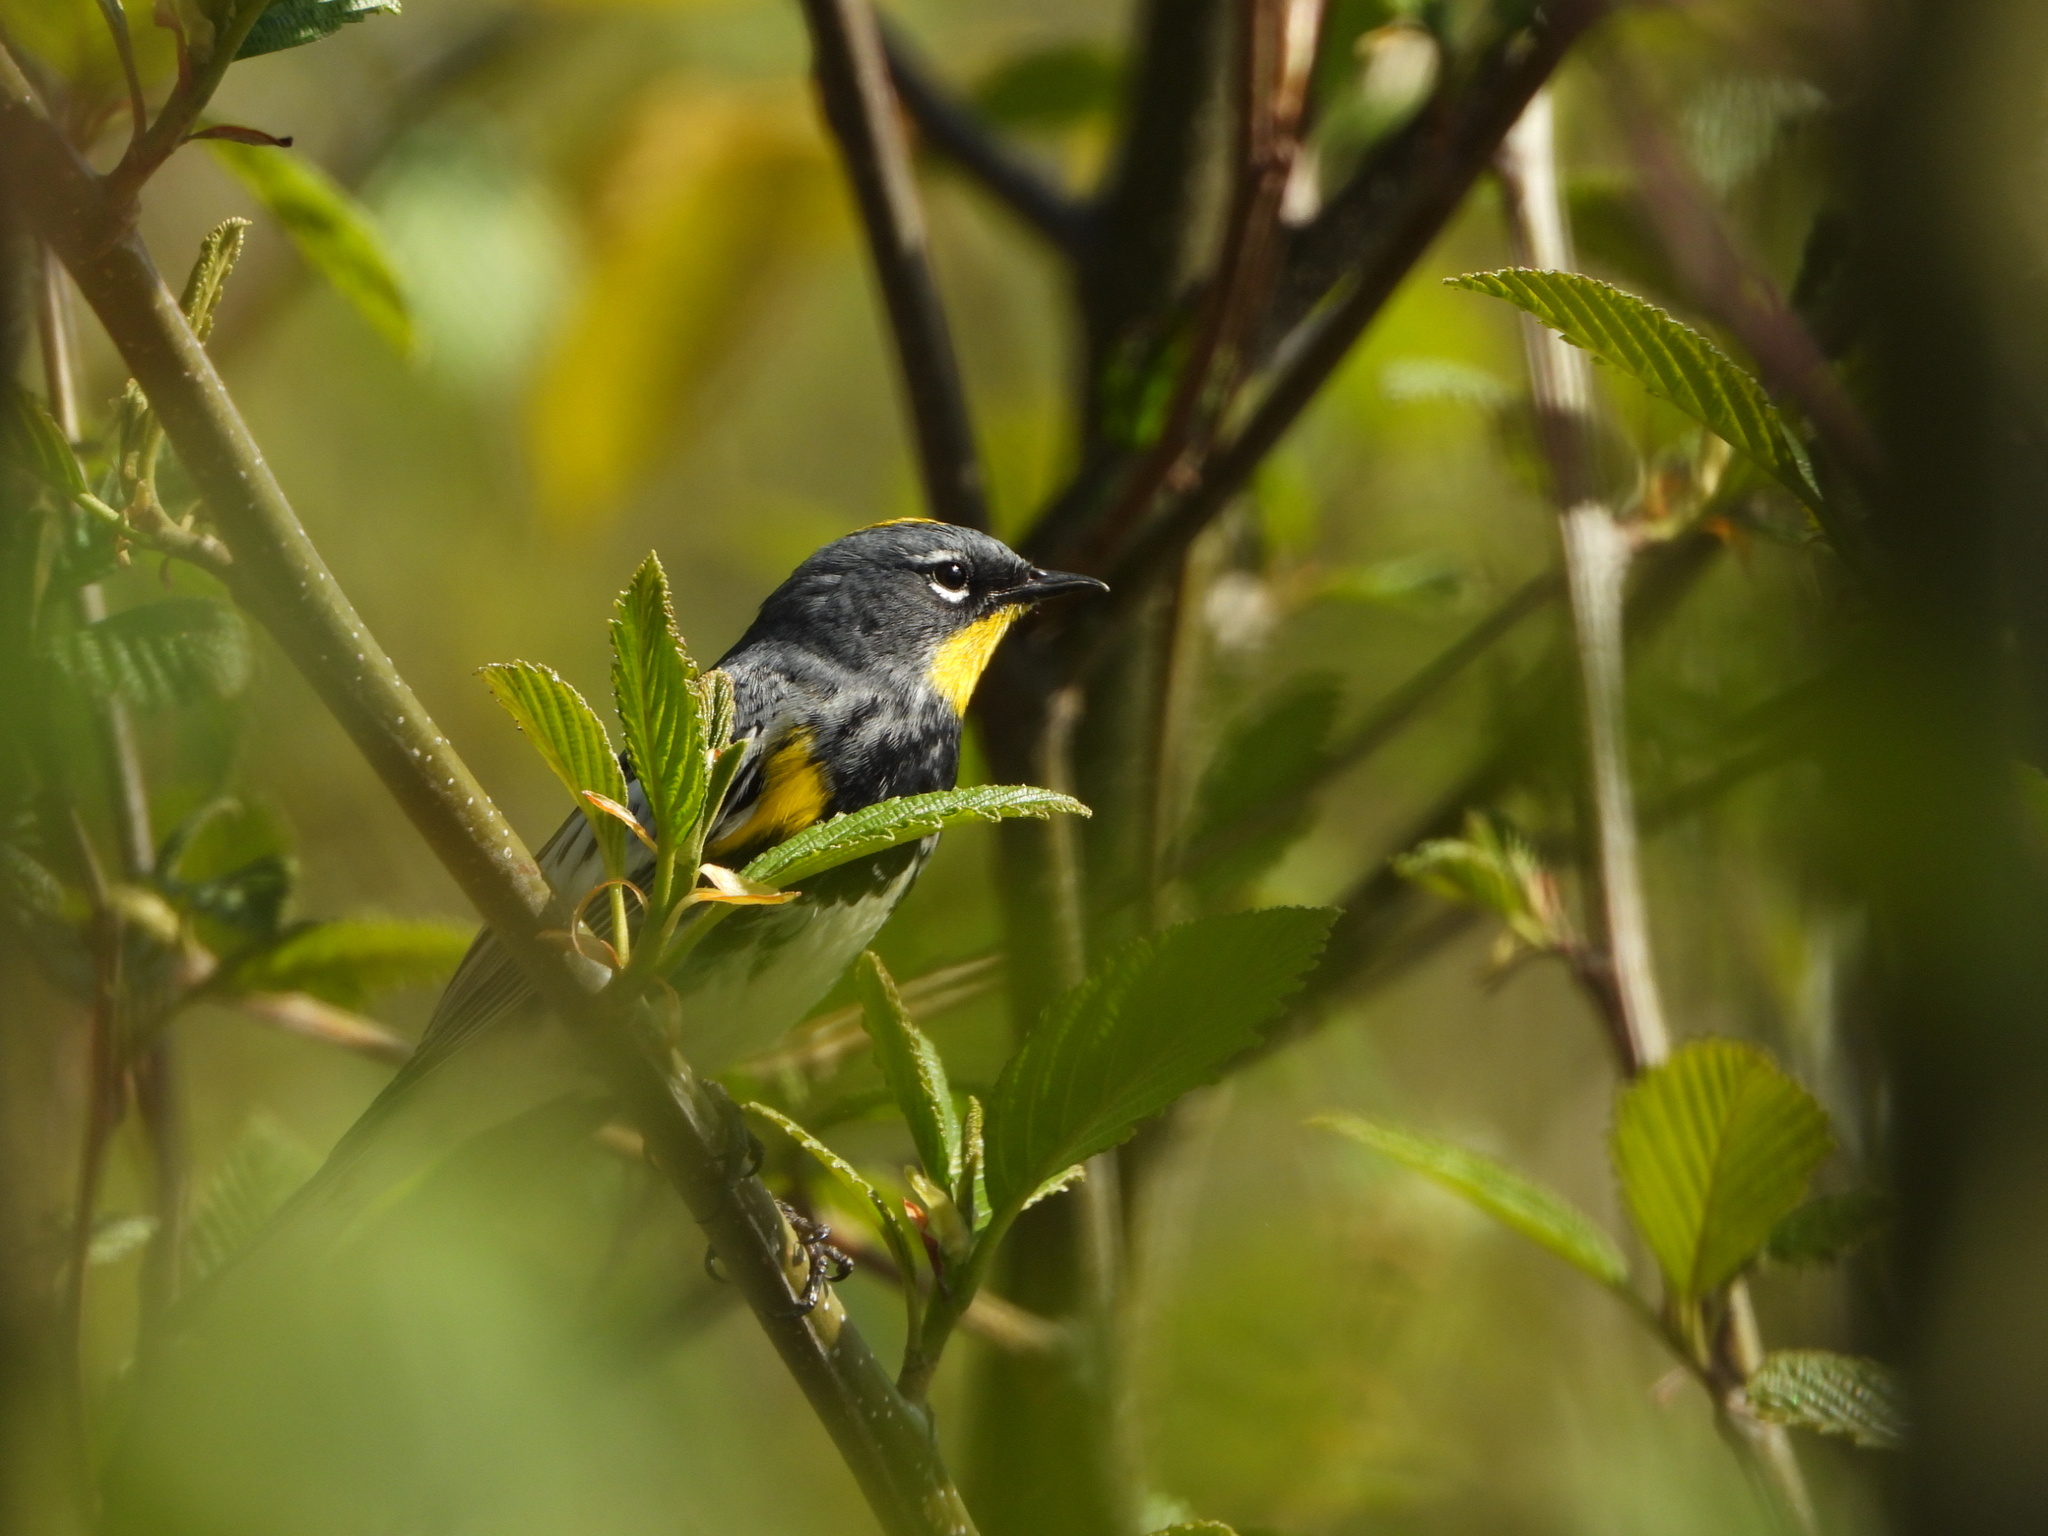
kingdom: Animalia
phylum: Chordata
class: Aves
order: Passeriformes
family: Parulidae
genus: Setophaga
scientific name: Setophaga auduboni
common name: Audubon's warbler
